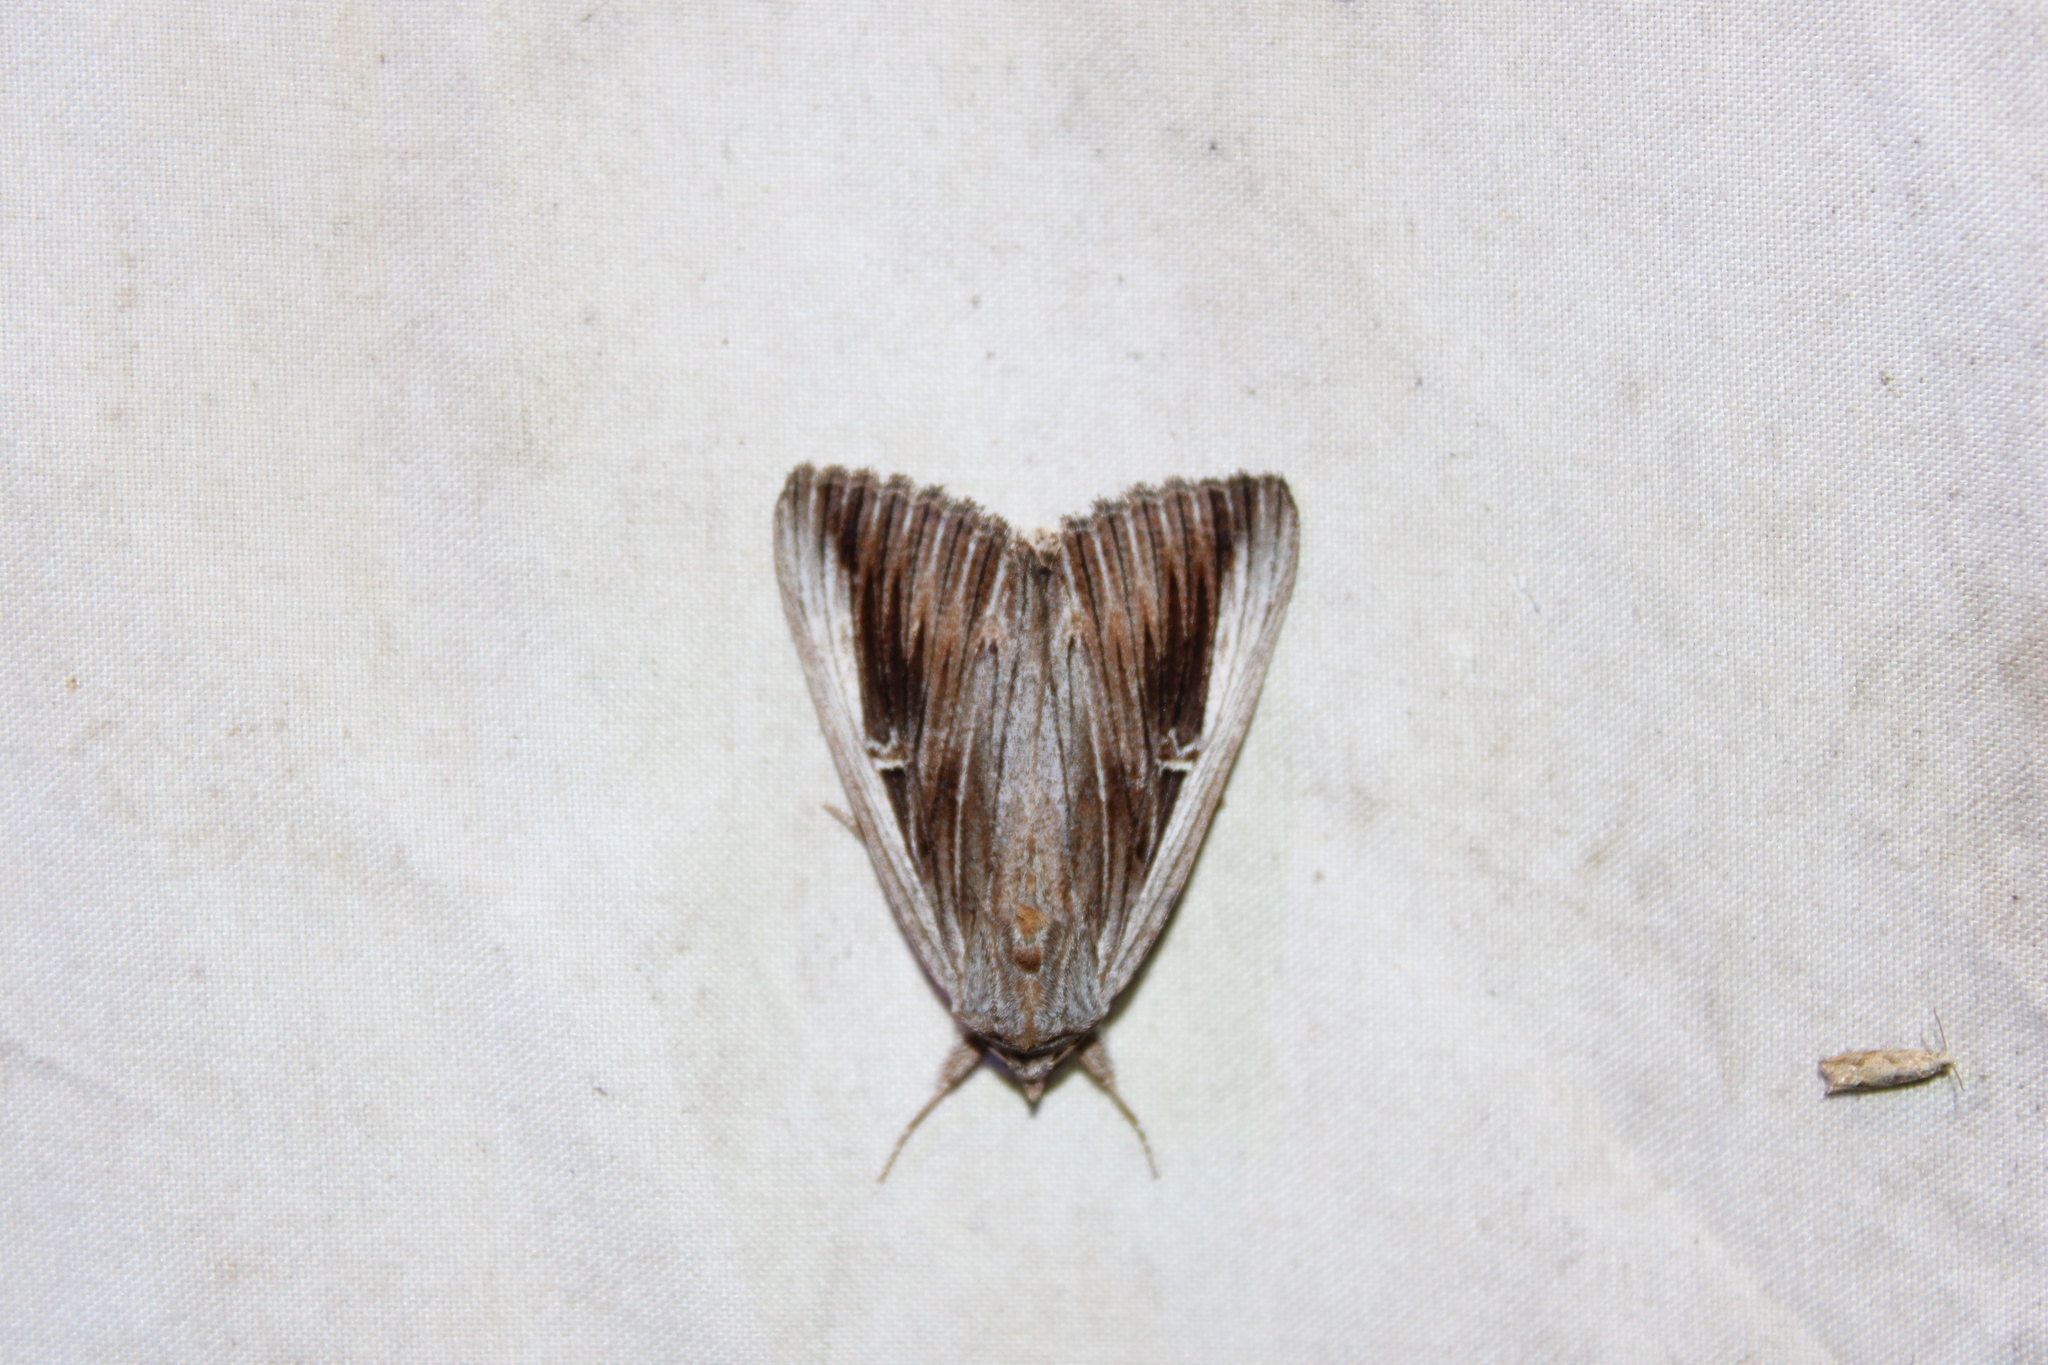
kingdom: Animalia
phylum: Arthropoda
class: Insecta
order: Lepidoptera
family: Erebidae
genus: Catocala
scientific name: Catocala herodias
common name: Pine barrens underwing
